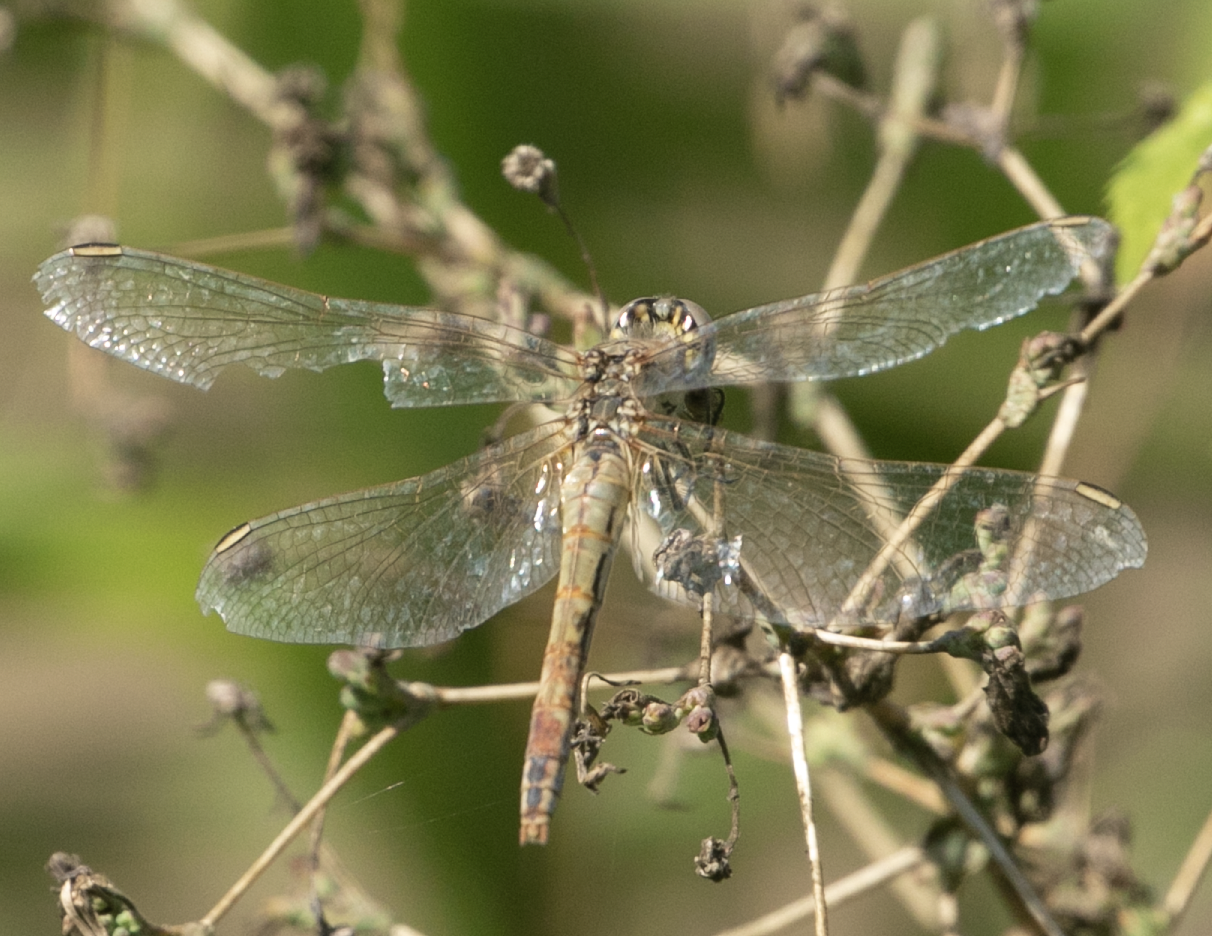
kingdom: Animalia
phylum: Arthropoda
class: Insecta
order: Odonata
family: Libellulidae
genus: Sympetrum
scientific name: Sympetrum fonscolombii
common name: Red-veined darter
